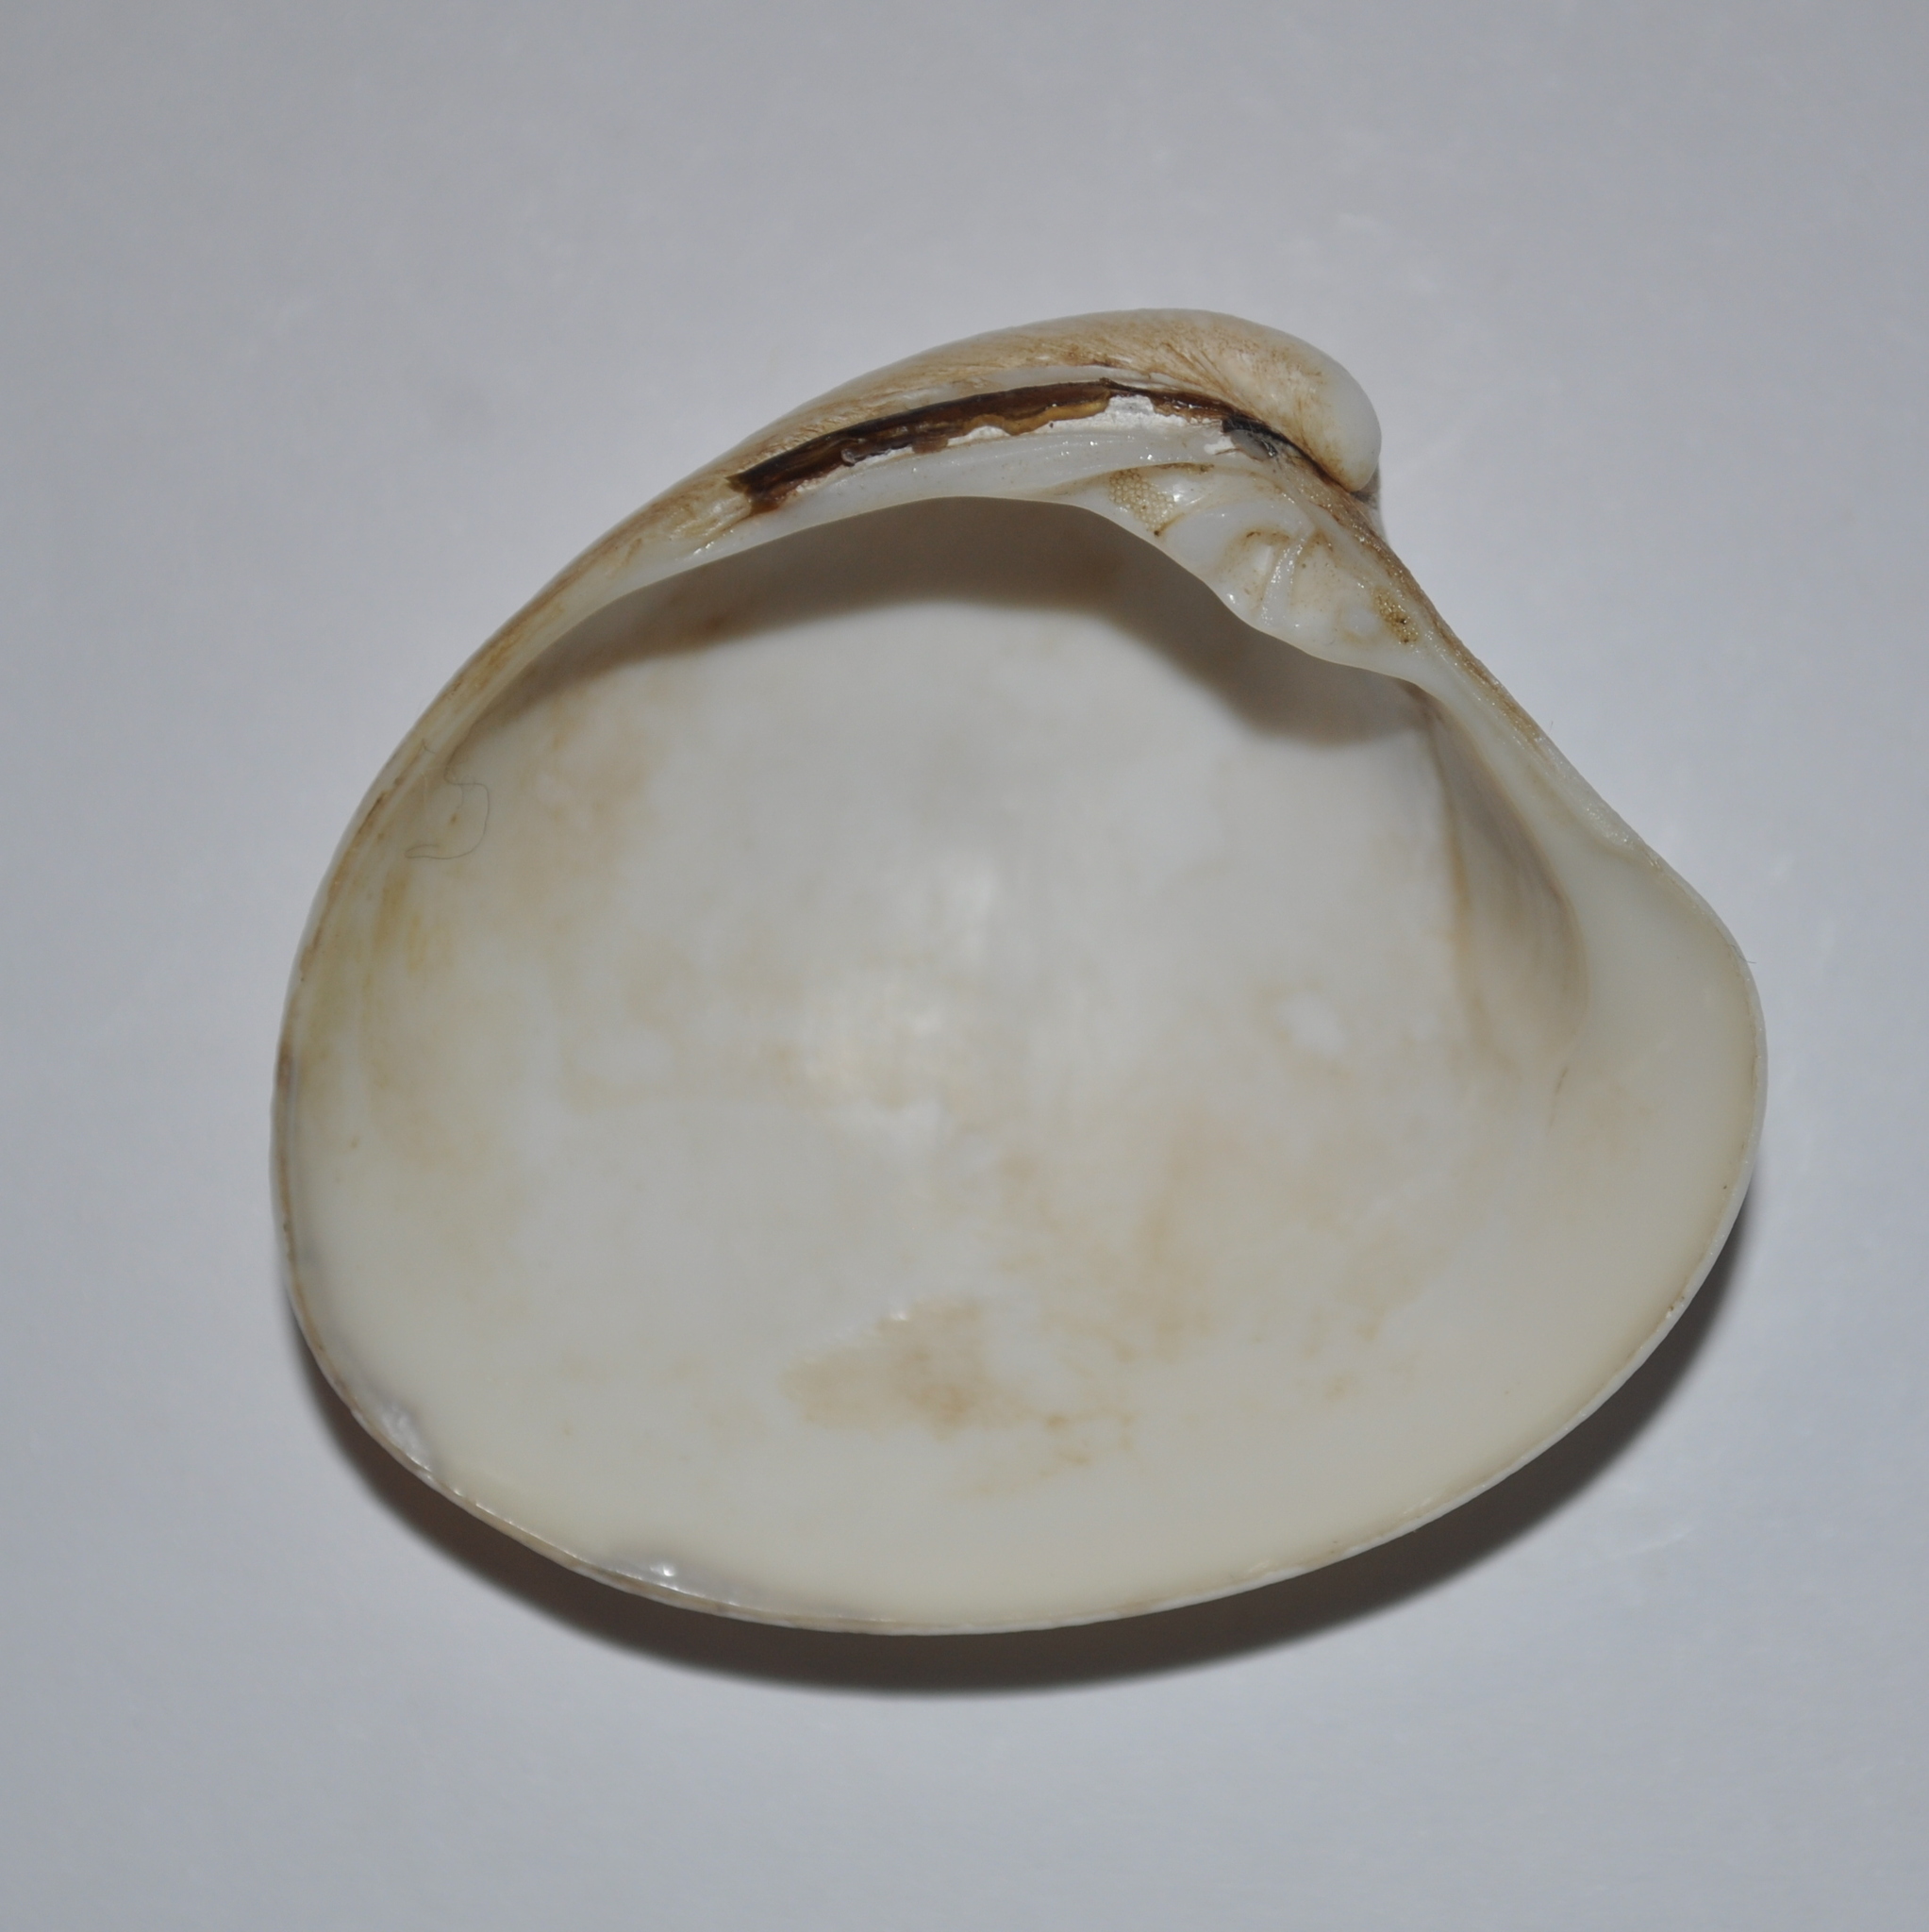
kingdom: Animalia
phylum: Mollusca
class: Bivalvia
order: Venerida
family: Veneridae
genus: Proteopitar
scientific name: Proteopitar patagonicus
